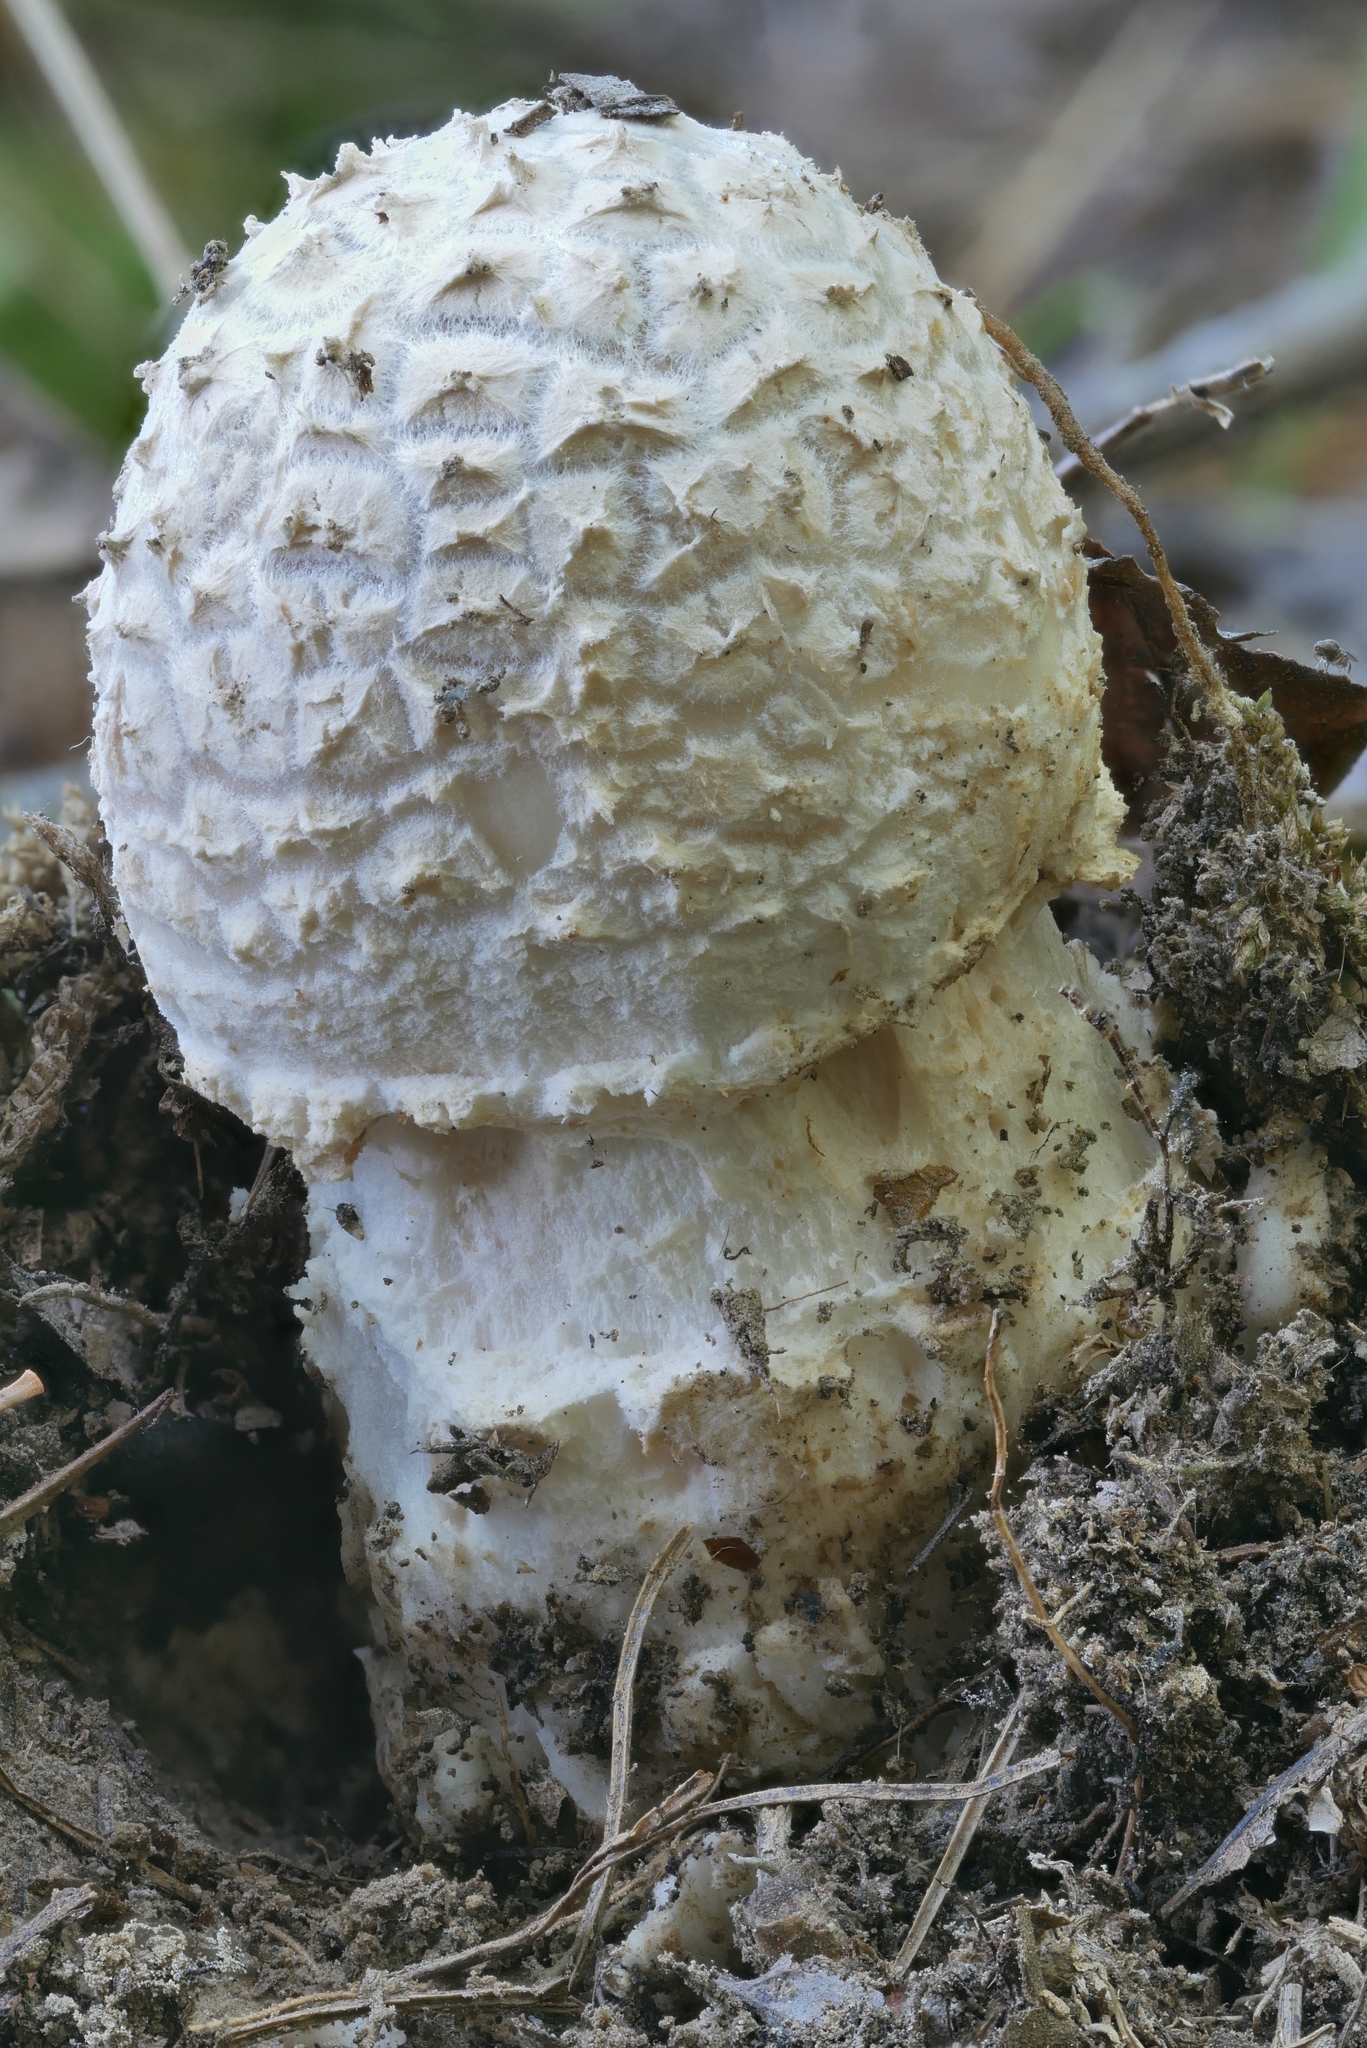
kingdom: Fungi
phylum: Basidiomycota
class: Agaricomycetes
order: Agaricales
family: Amanitaceae
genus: Amanita
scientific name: Amanita canescens
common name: Golden threads lepidella
